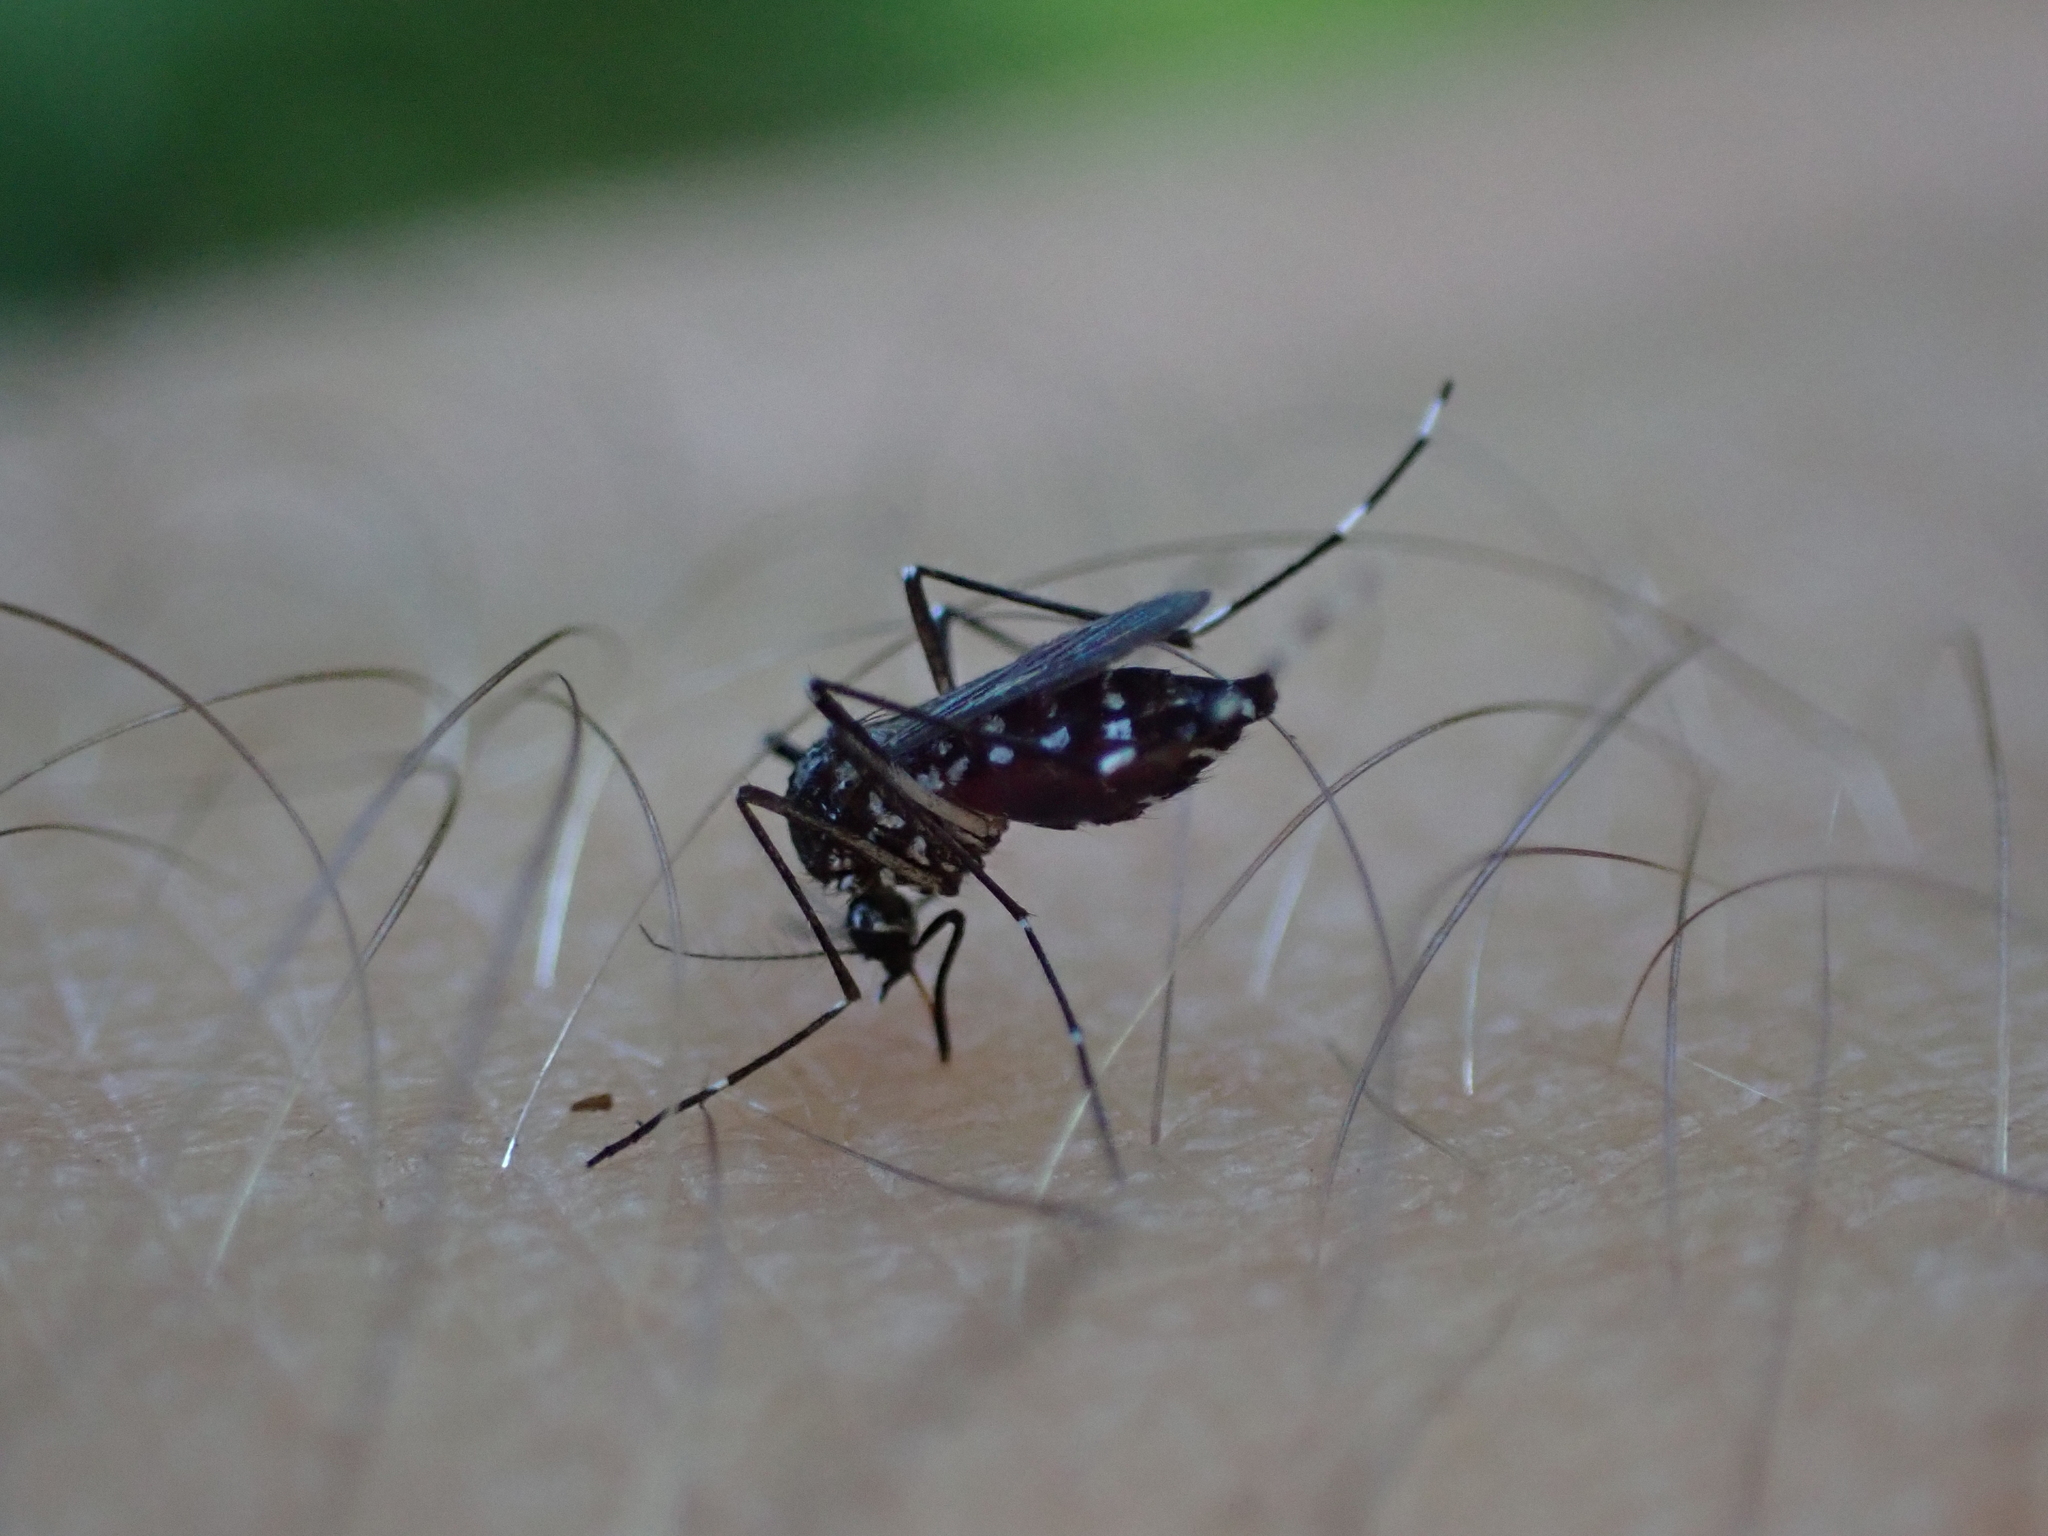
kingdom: Animalia
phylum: Arthropoda
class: Insecta
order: Diptera
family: Culicidae
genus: Aedes
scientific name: Aedes albopictus
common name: Tiger mosquito
